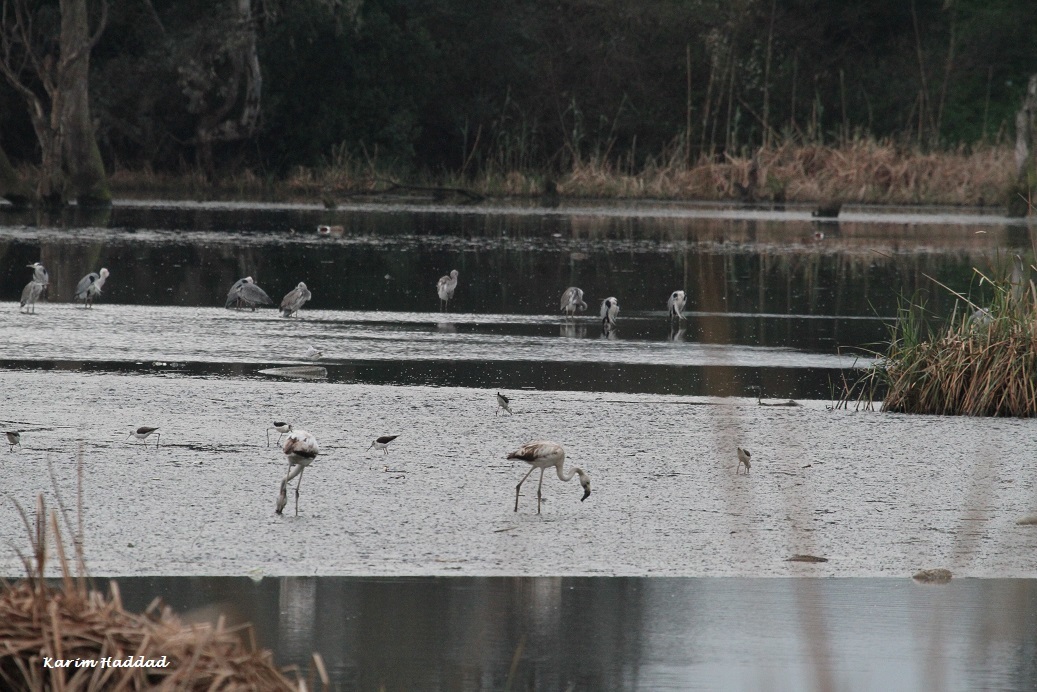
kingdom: Animalia
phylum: Chordata
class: Aves
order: Phoenicopteriformes
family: Phoenicopteridae
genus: Phoenicopterus
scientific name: Phoenicopterus roseus
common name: Greater flamingo
